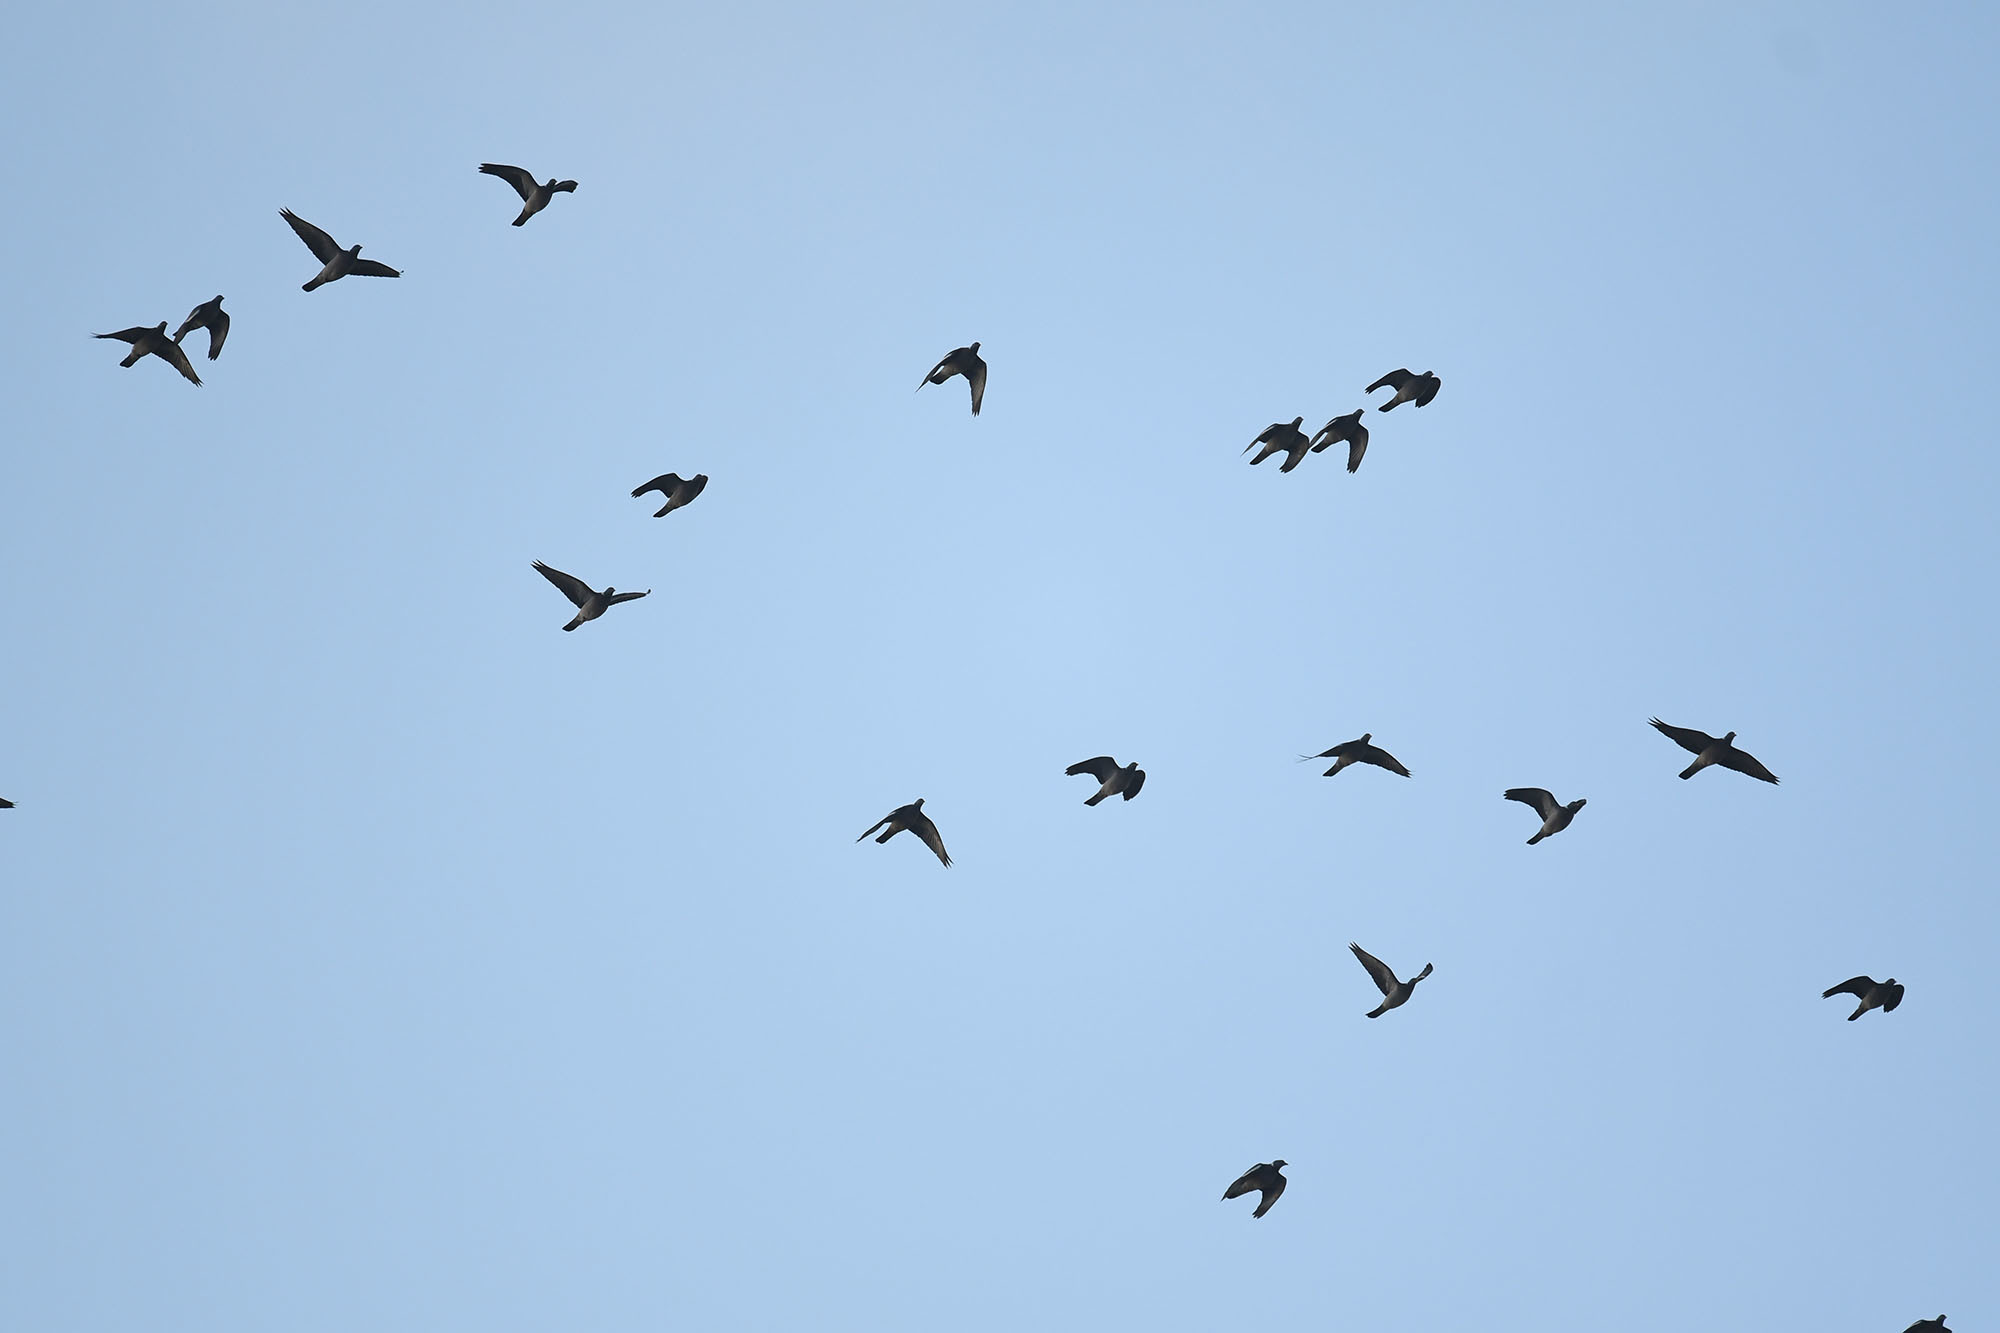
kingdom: Animalia
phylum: Chordata
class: Aves
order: Columbiformes
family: Columbidae
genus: Columba
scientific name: Columba palumbus
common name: Common wood pigeon
